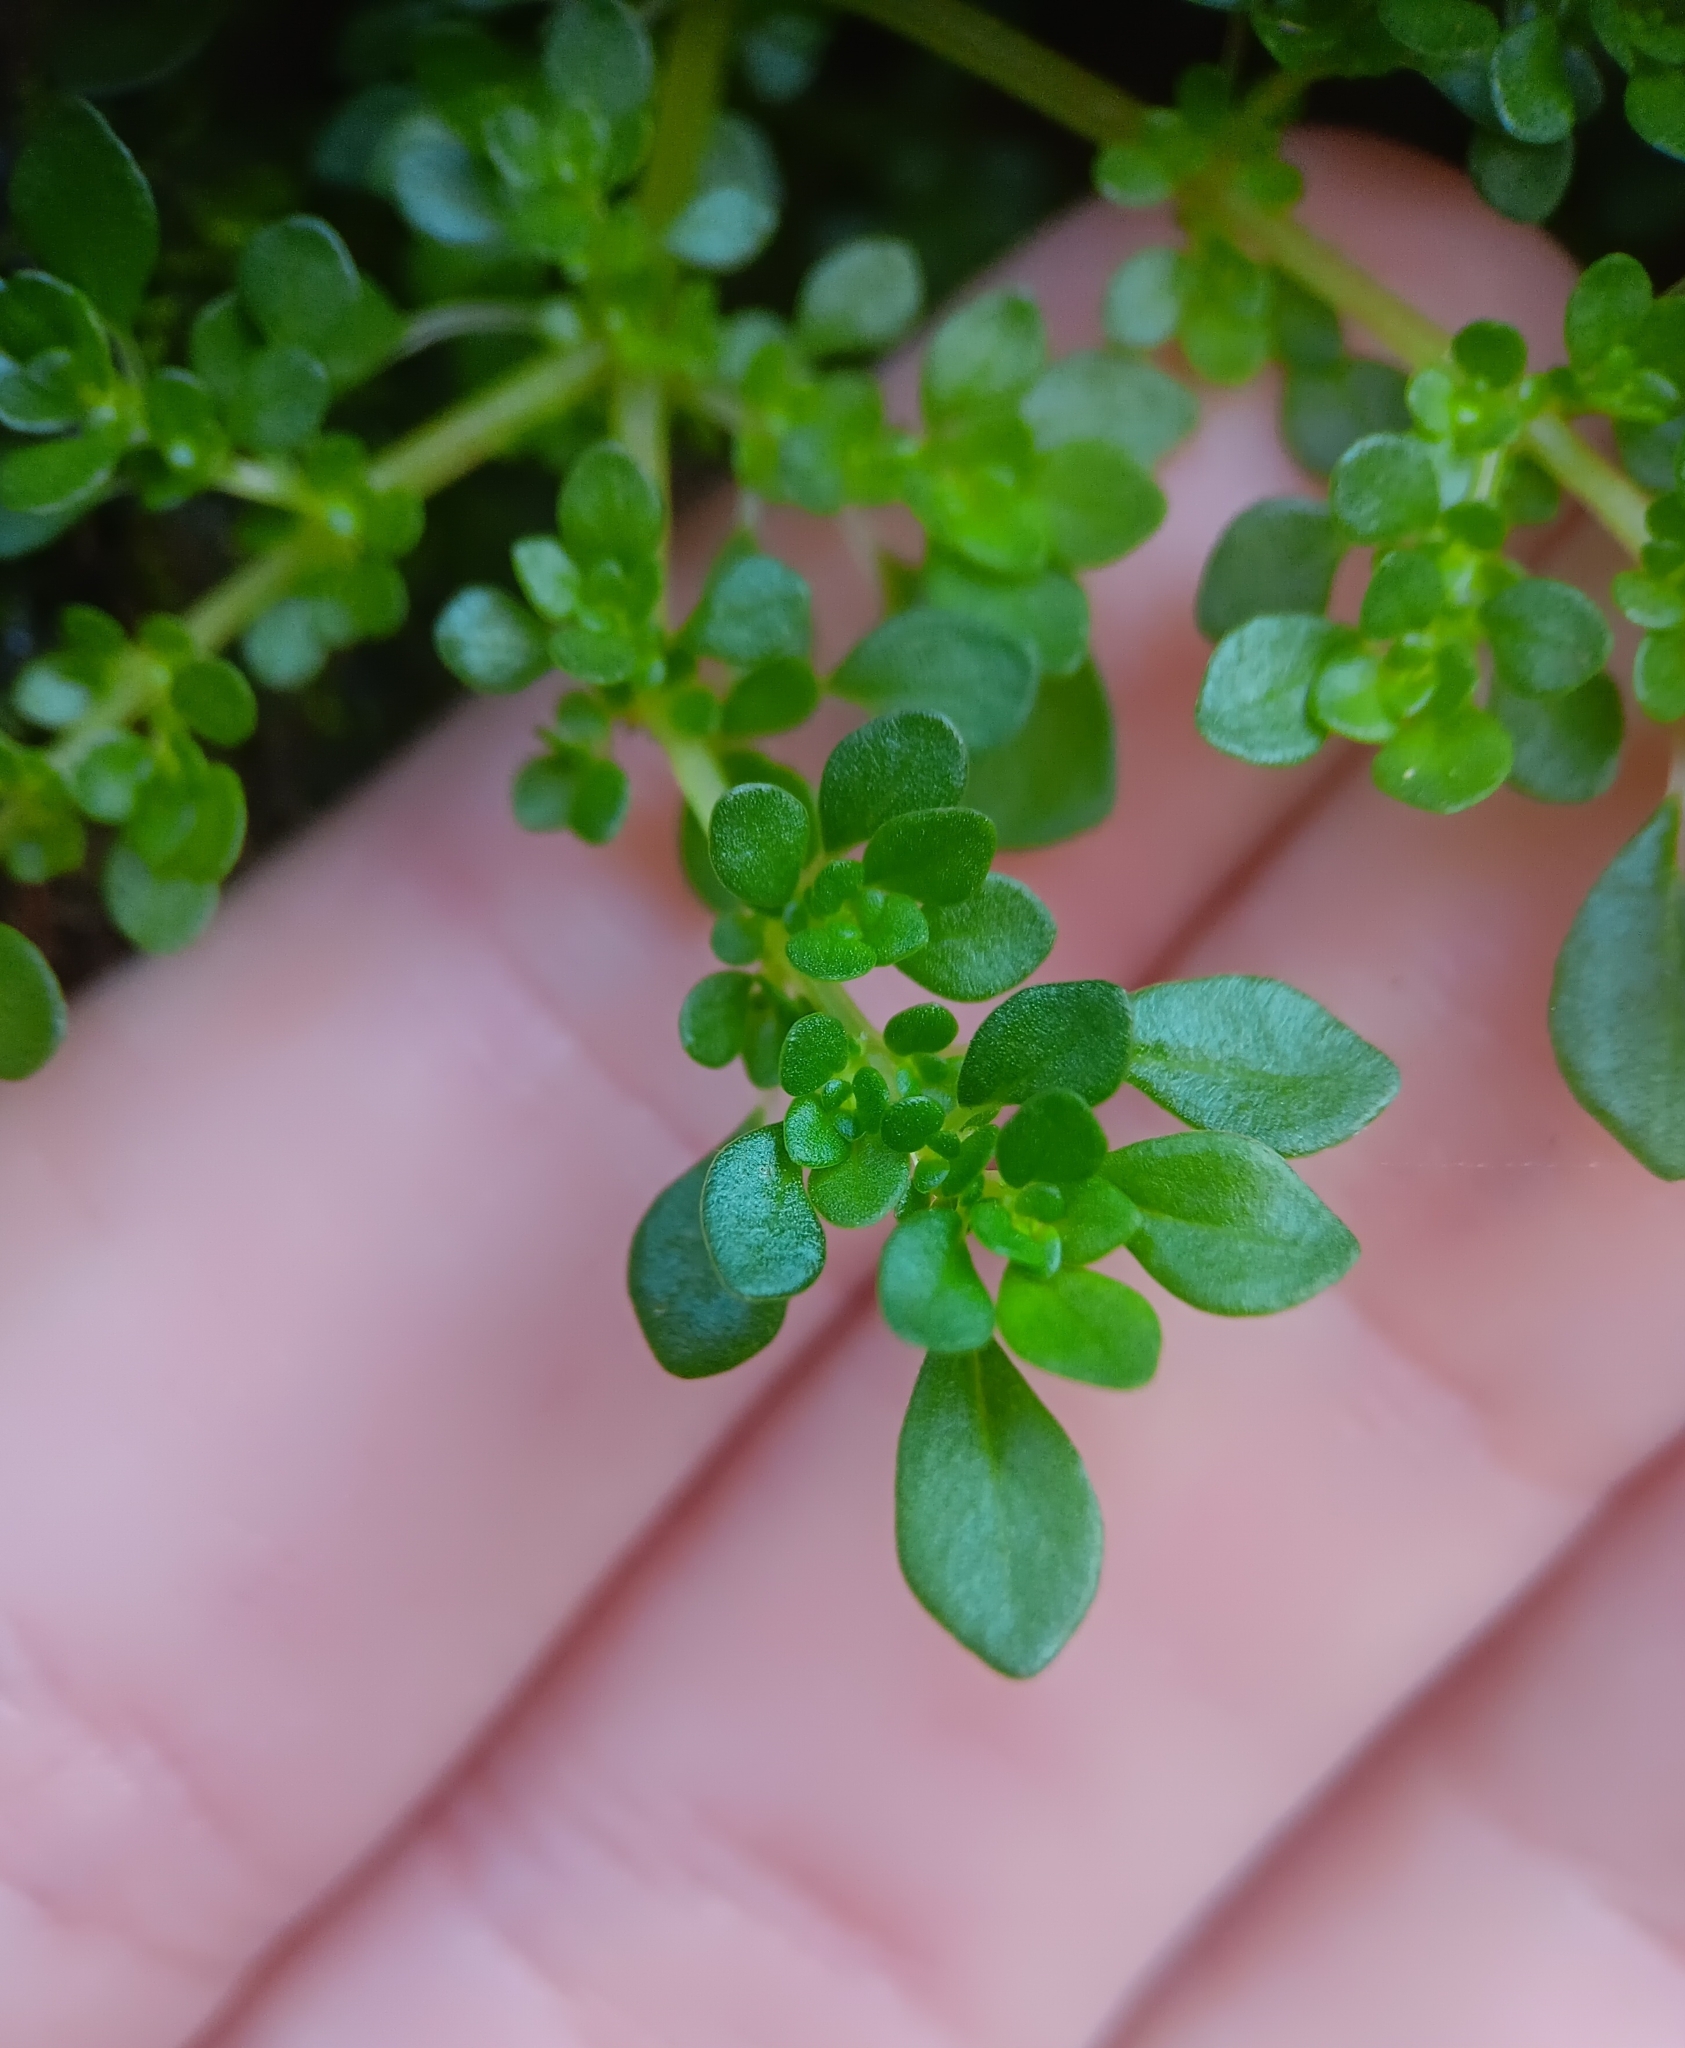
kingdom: Plantae
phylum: Tracheophyta
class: Magnoliopsida
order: Rosales
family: Urticaceae
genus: Pilea
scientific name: Pilea microphylla
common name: Artillery-plant
